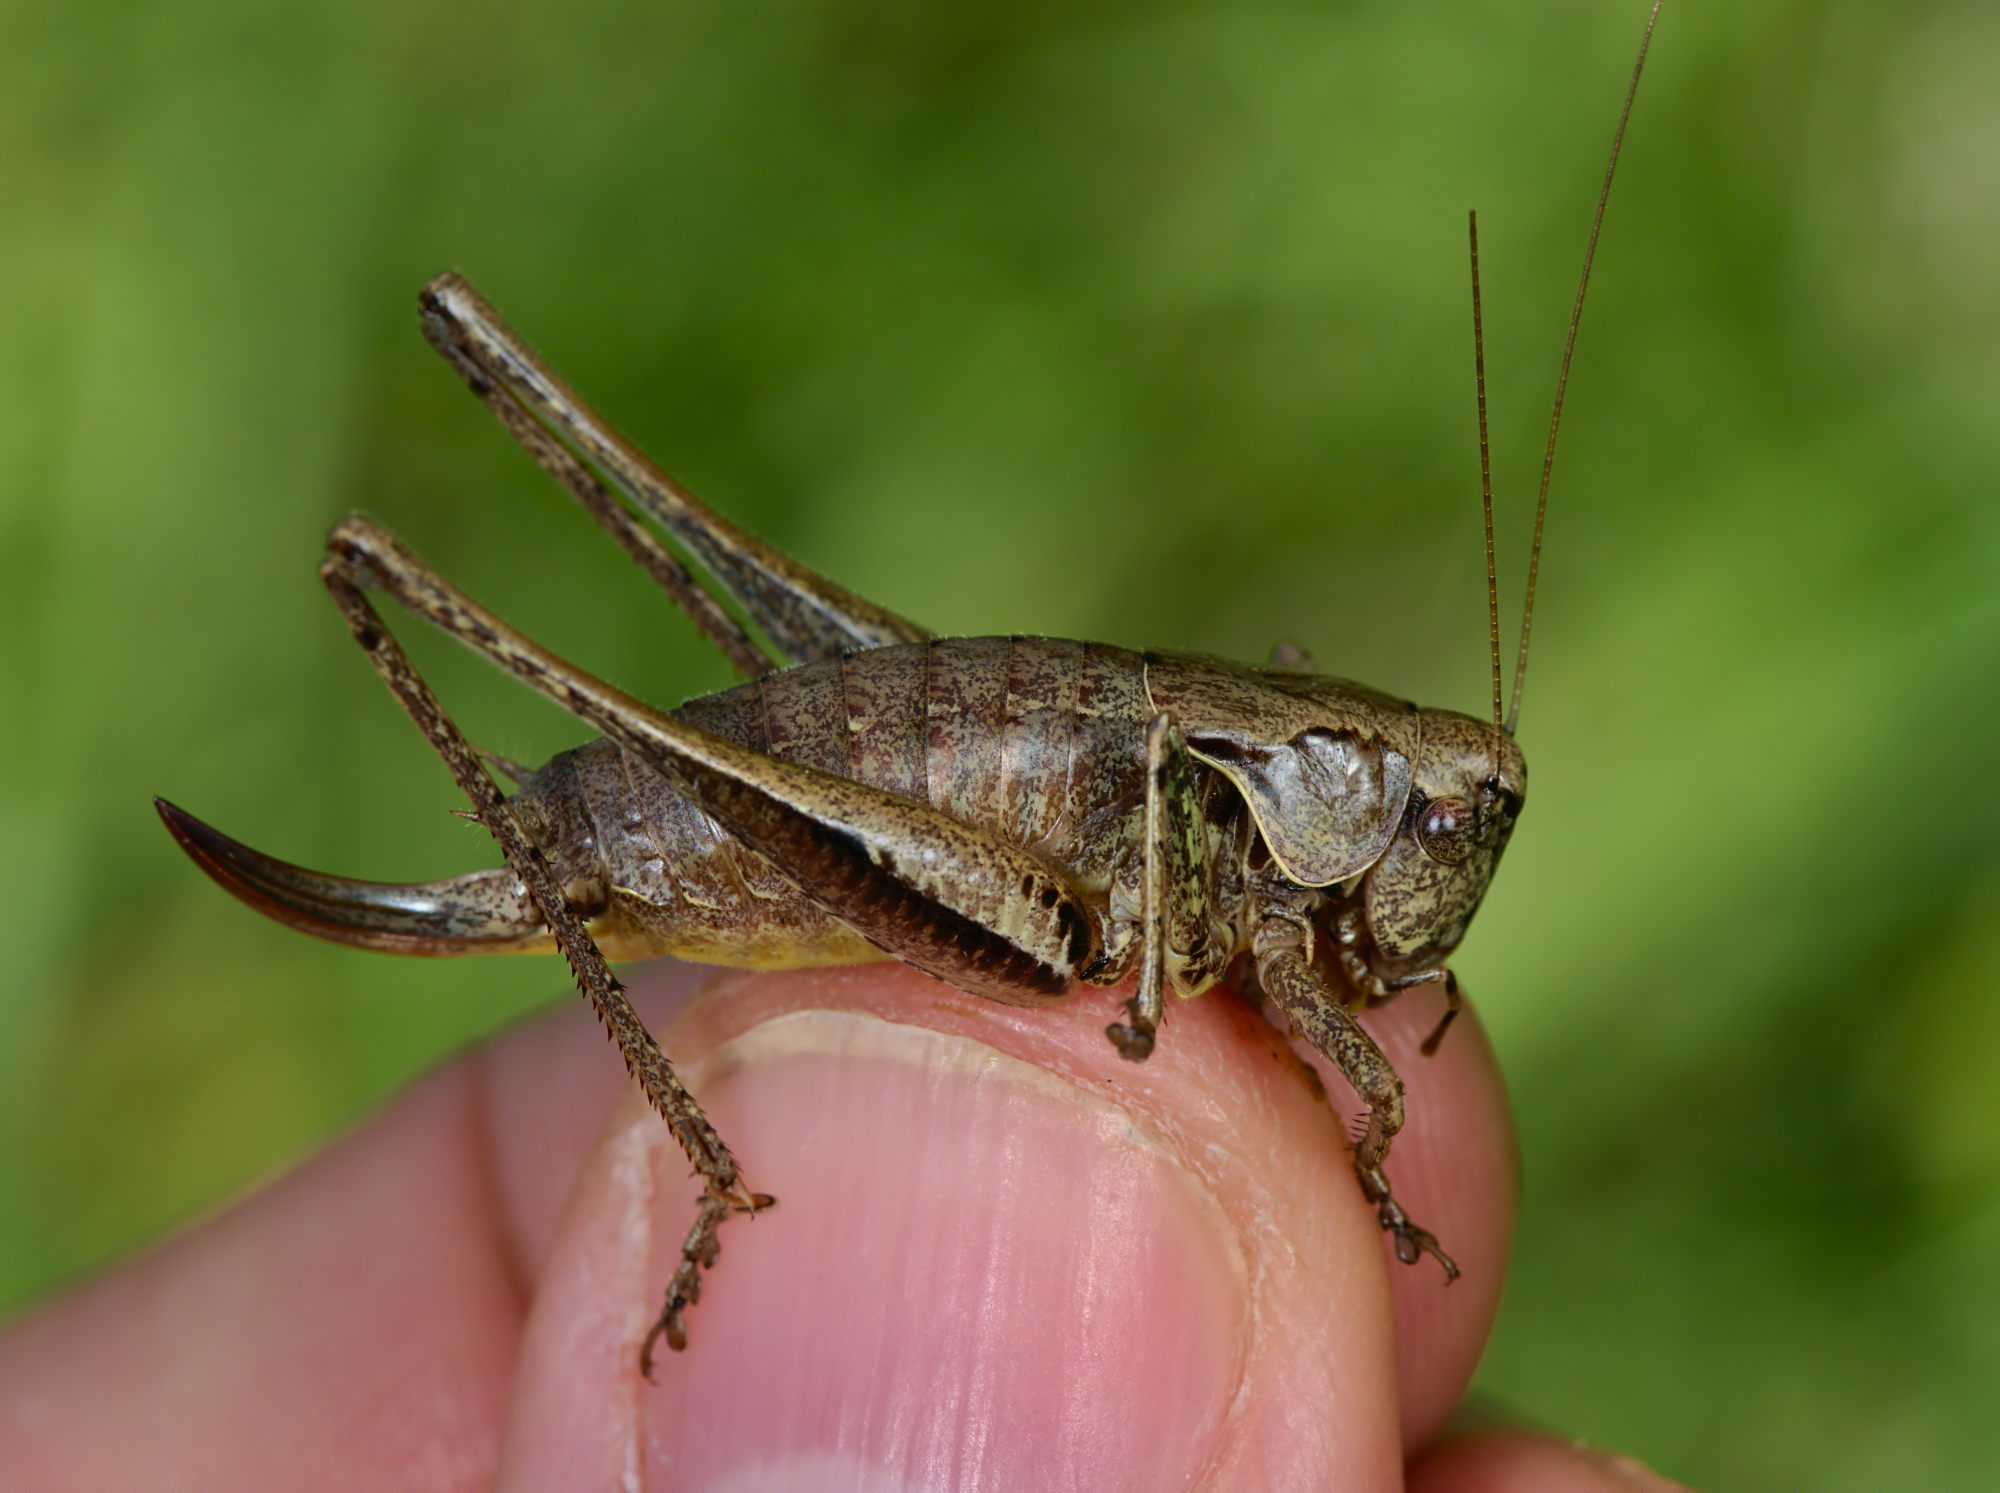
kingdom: Animalia
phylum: Arthropoda
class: Insecta
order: Orthoptera
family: Tettigoniidae
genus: Pholidoptera
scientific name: Pholidoptera griseoaptera
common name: Dark bush-cricket
